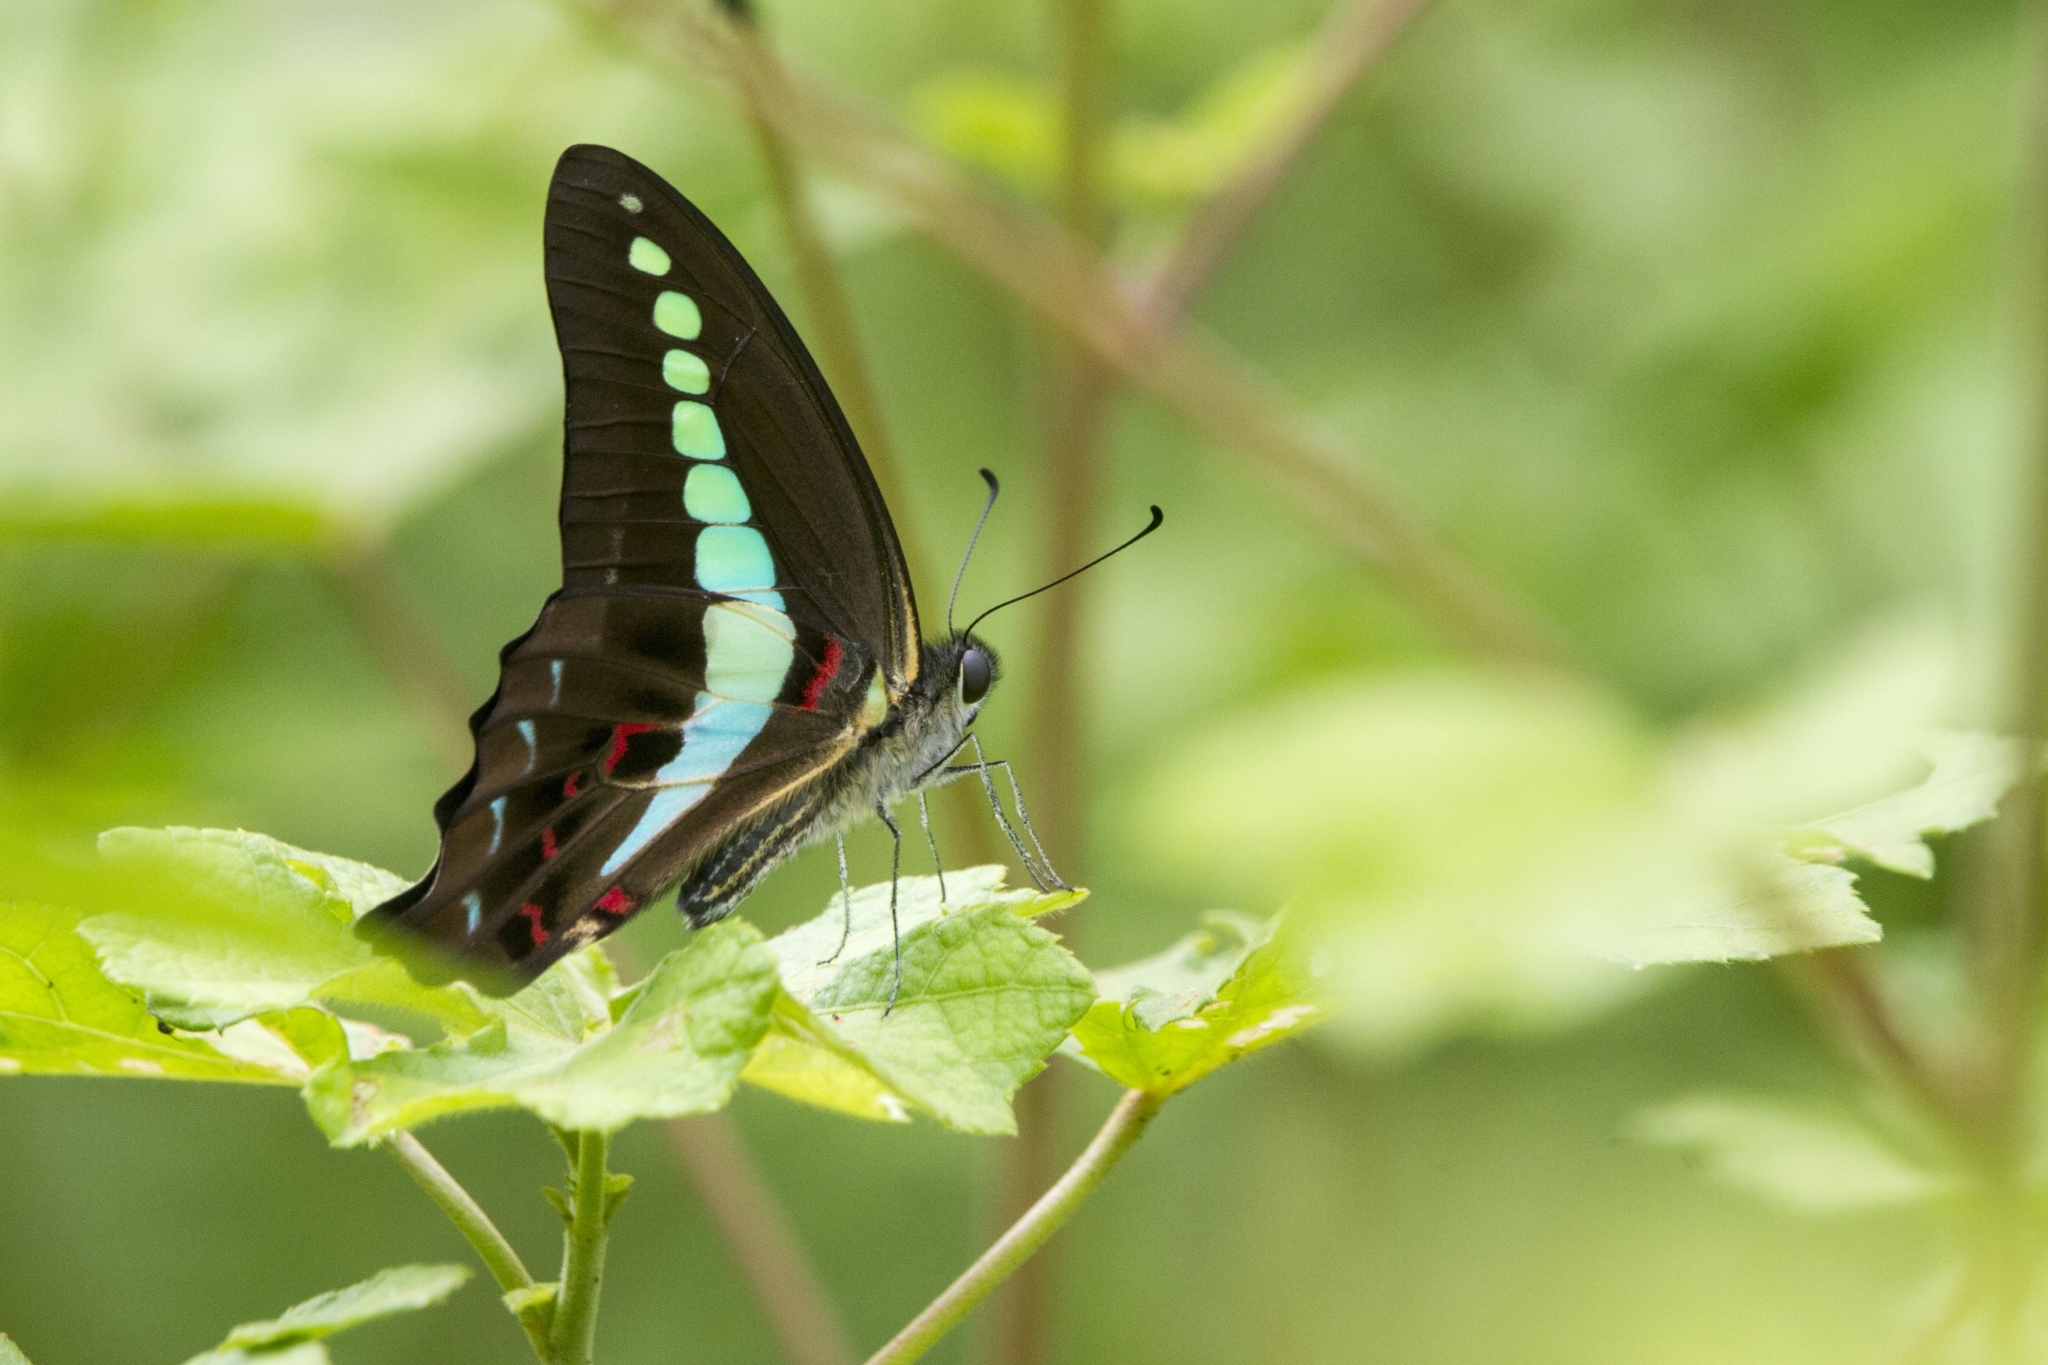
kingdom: Animalia
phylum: Arthropoda
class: Insecta
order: Lepidoptera
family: Papilionidae
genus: Graphium
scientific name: Graphium
